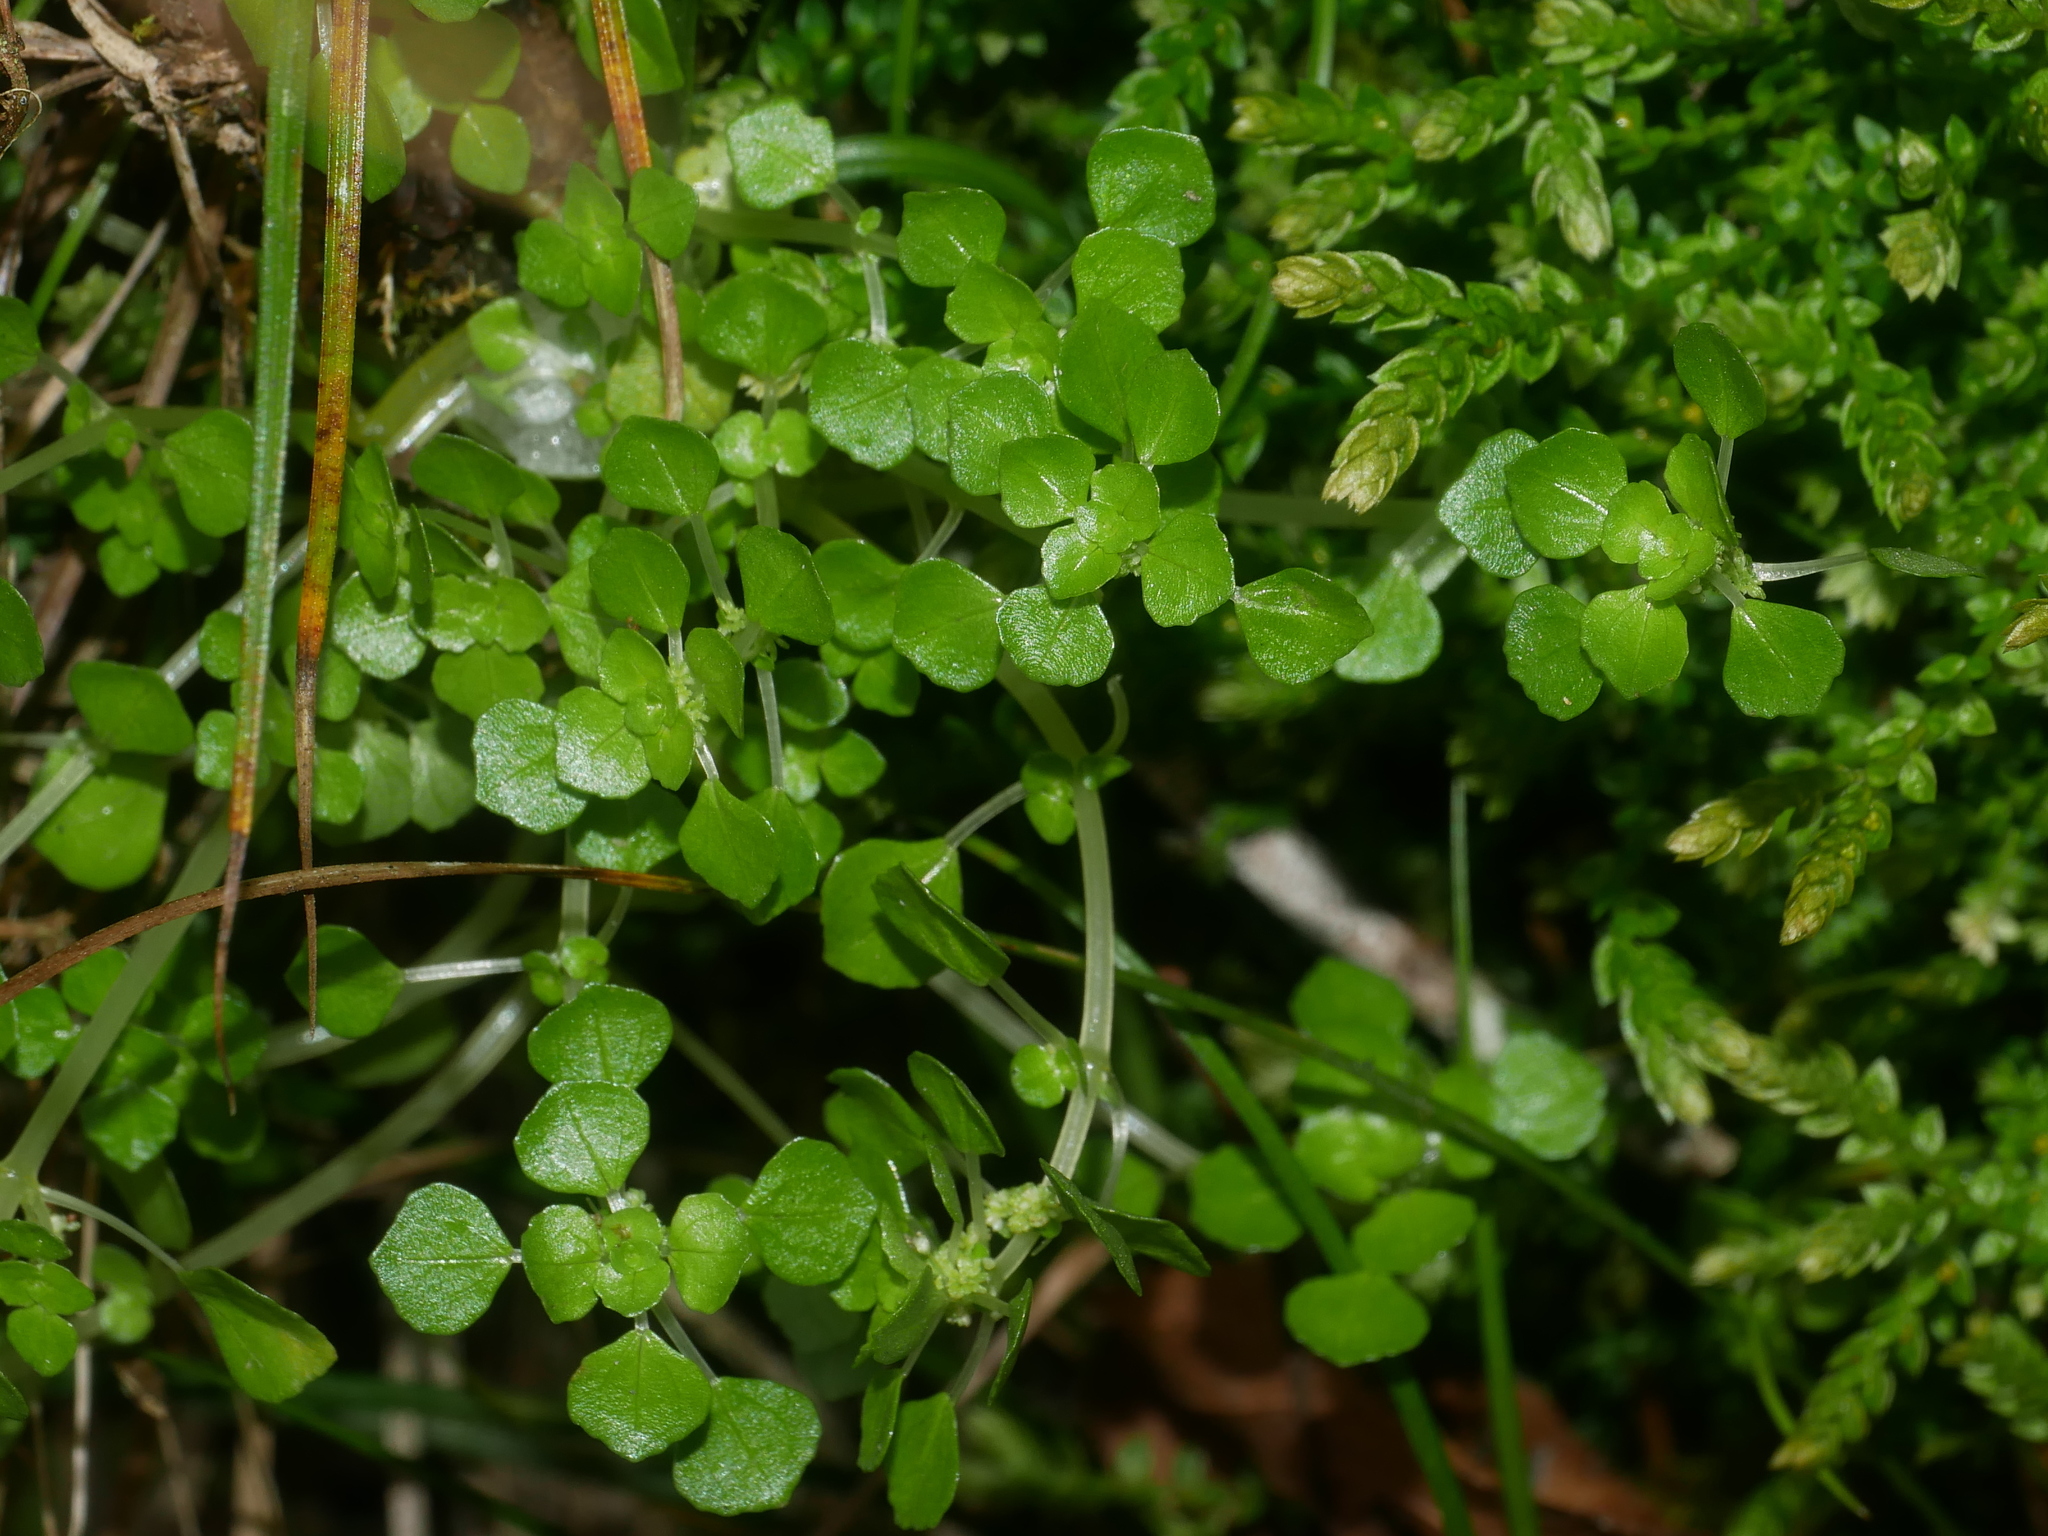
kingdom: Plantae
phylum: Tracheophyta
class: Magnoliopsida
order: Rosales
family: Urticaceae
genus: Pilea
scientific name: Pilea peploides
